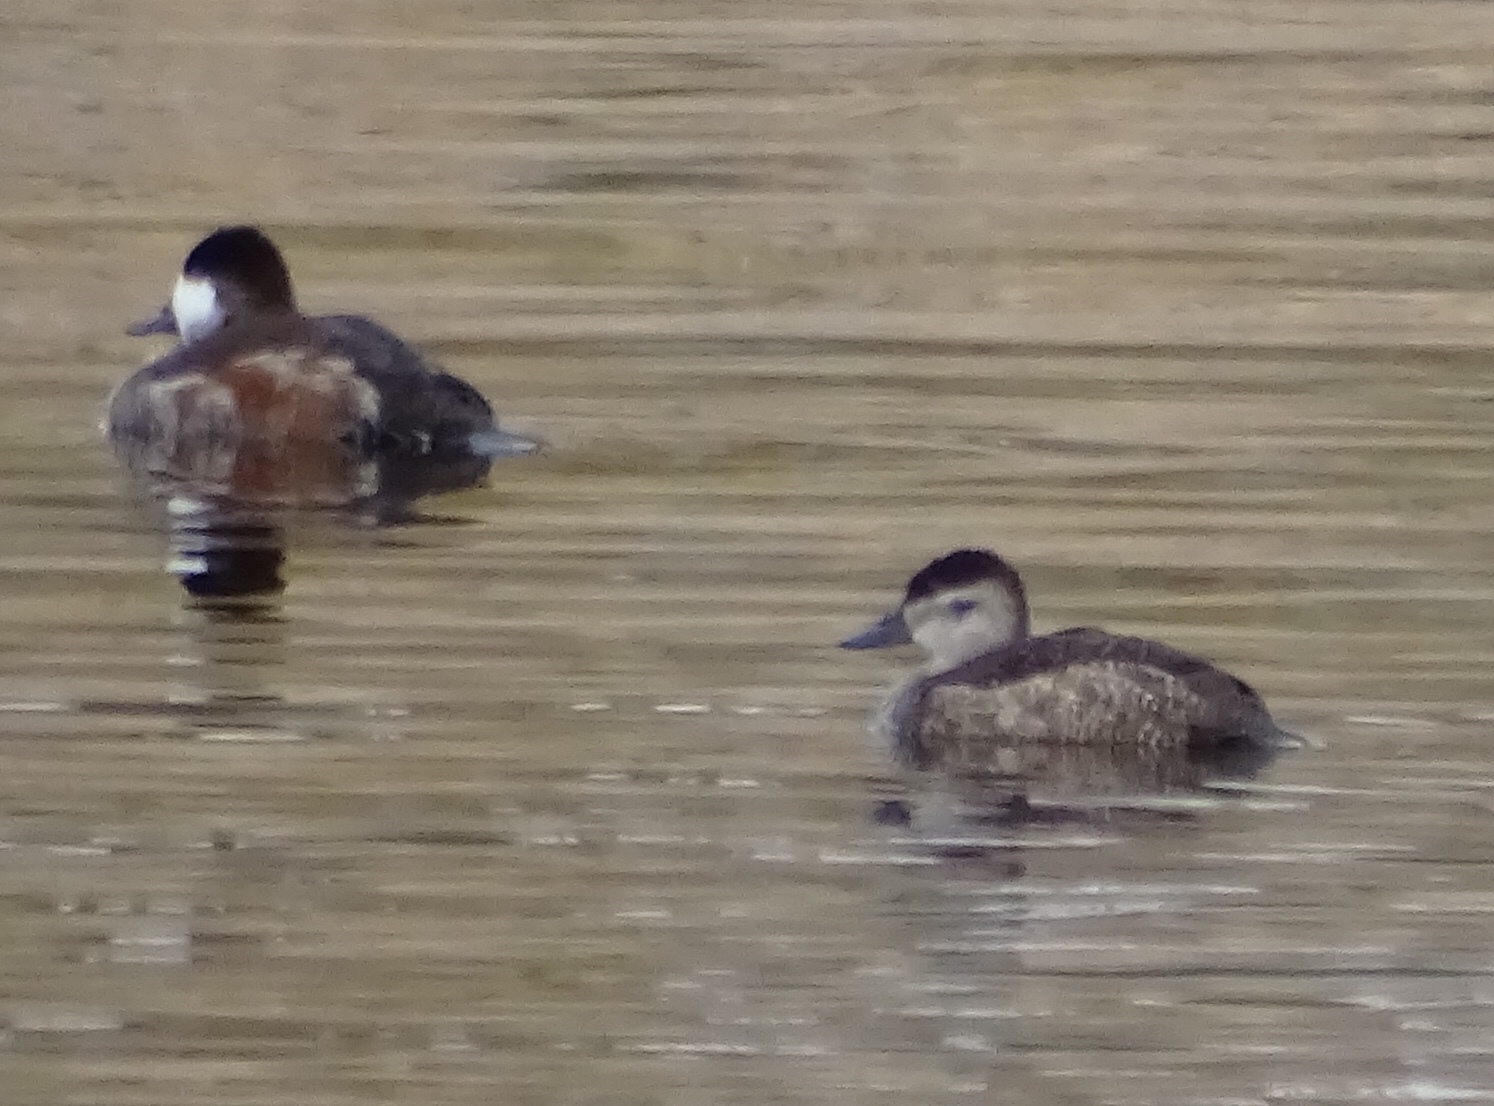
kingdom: Animalia
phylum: Chordata
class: Aves
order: Anseriformes
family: Anatidae
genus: Oxyura
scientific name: Oxyura jamaicensis
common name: Ruddy duck
